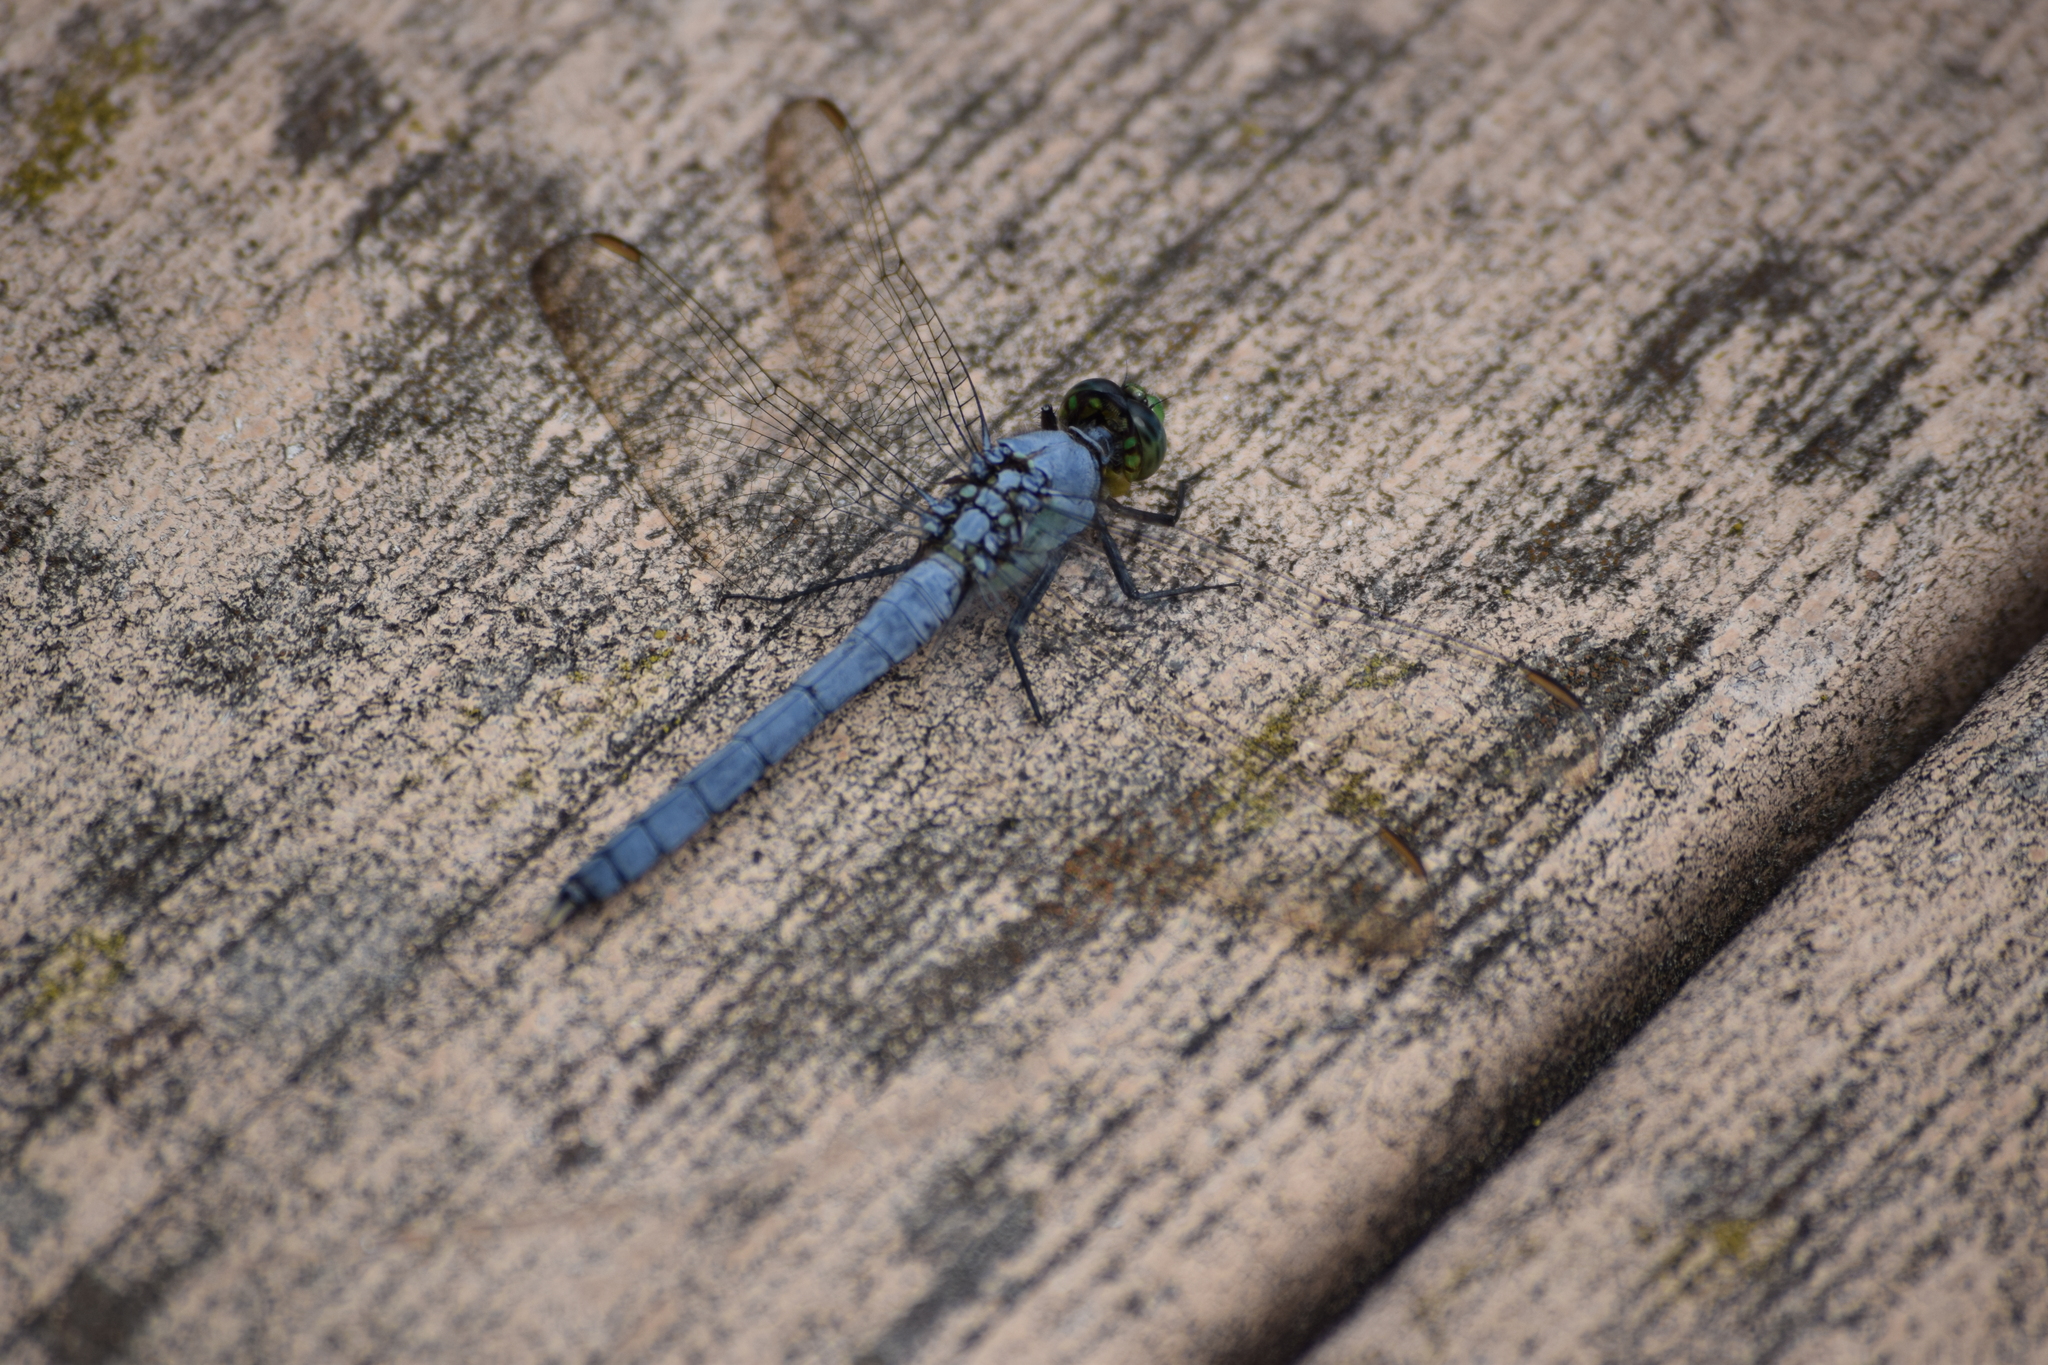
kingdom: Animalia
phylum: Arthropoda
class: Insecta
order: Odonata
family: Libellulidae
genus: Erythemis
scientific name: Erythemis simplicicollis
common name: Eastern pondhawk
